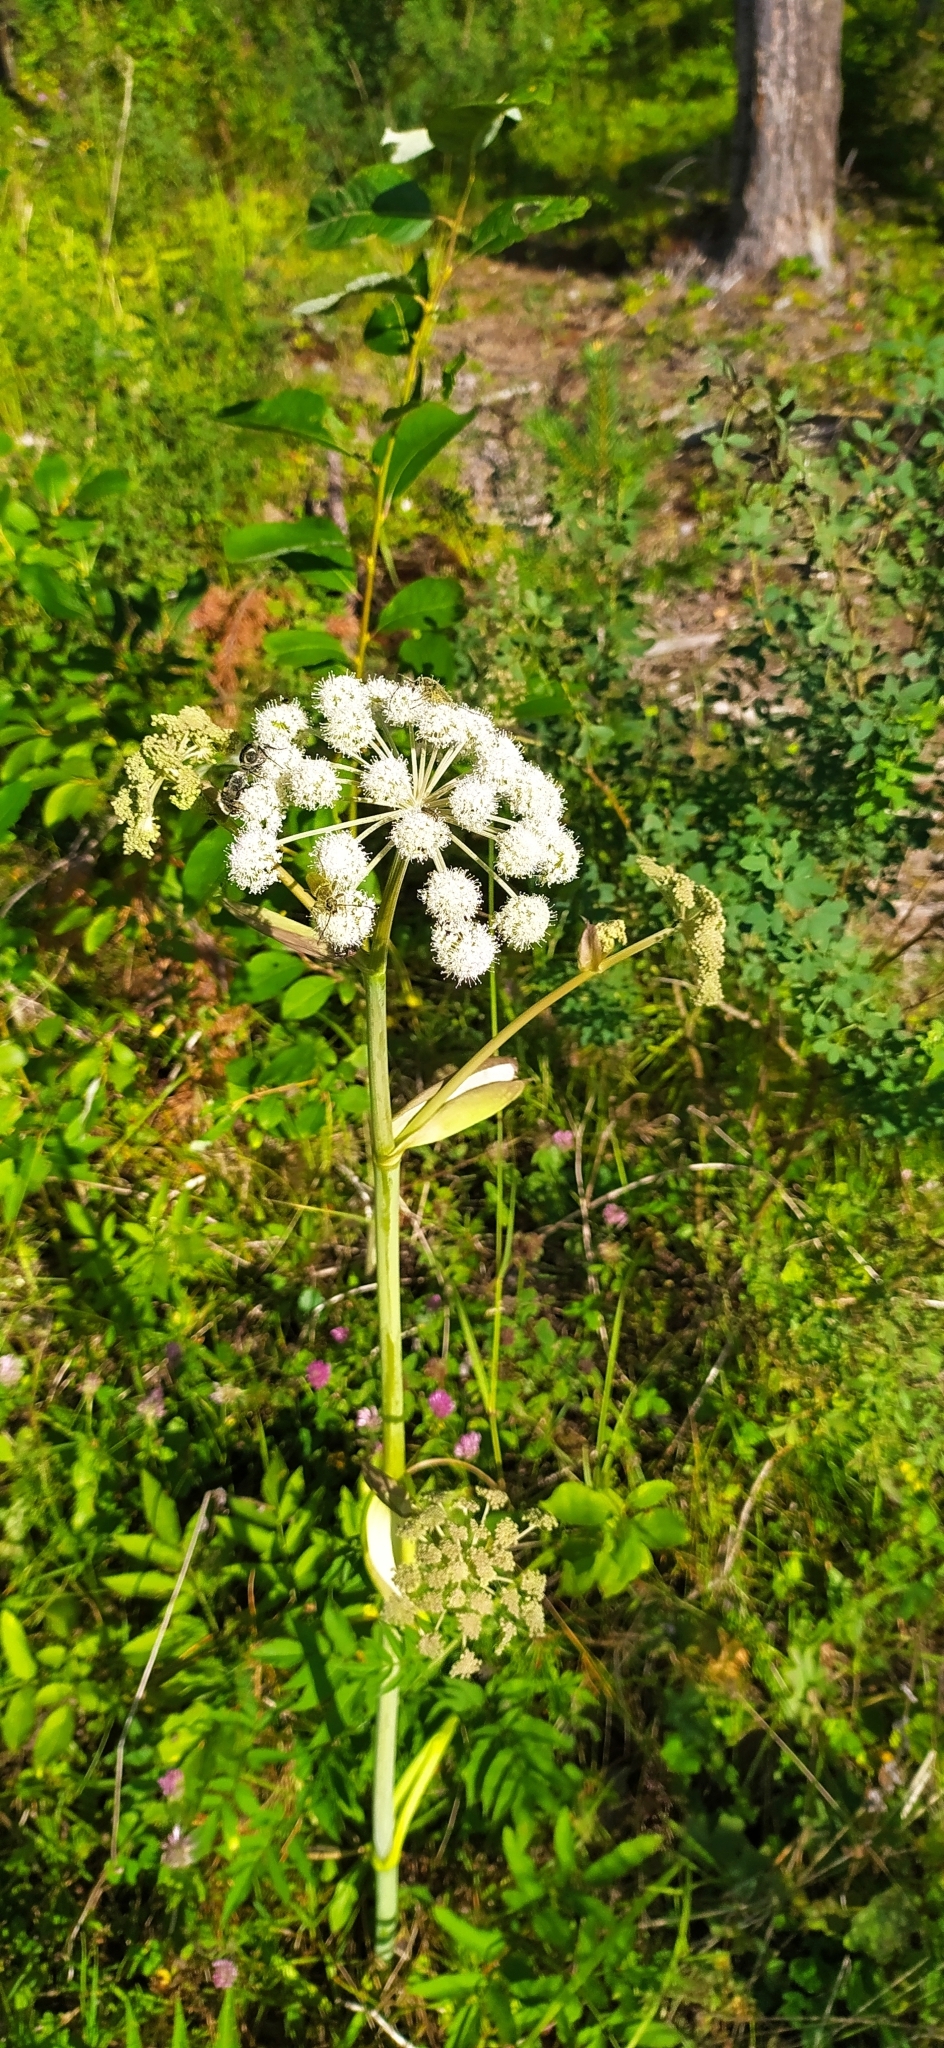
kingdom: Plantae
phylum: Tracheophyta
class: Magnoliopsida
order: Apiales
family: Apiaceae
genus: Angelica
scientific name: Angelica sylvestris
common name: Wild angelica
